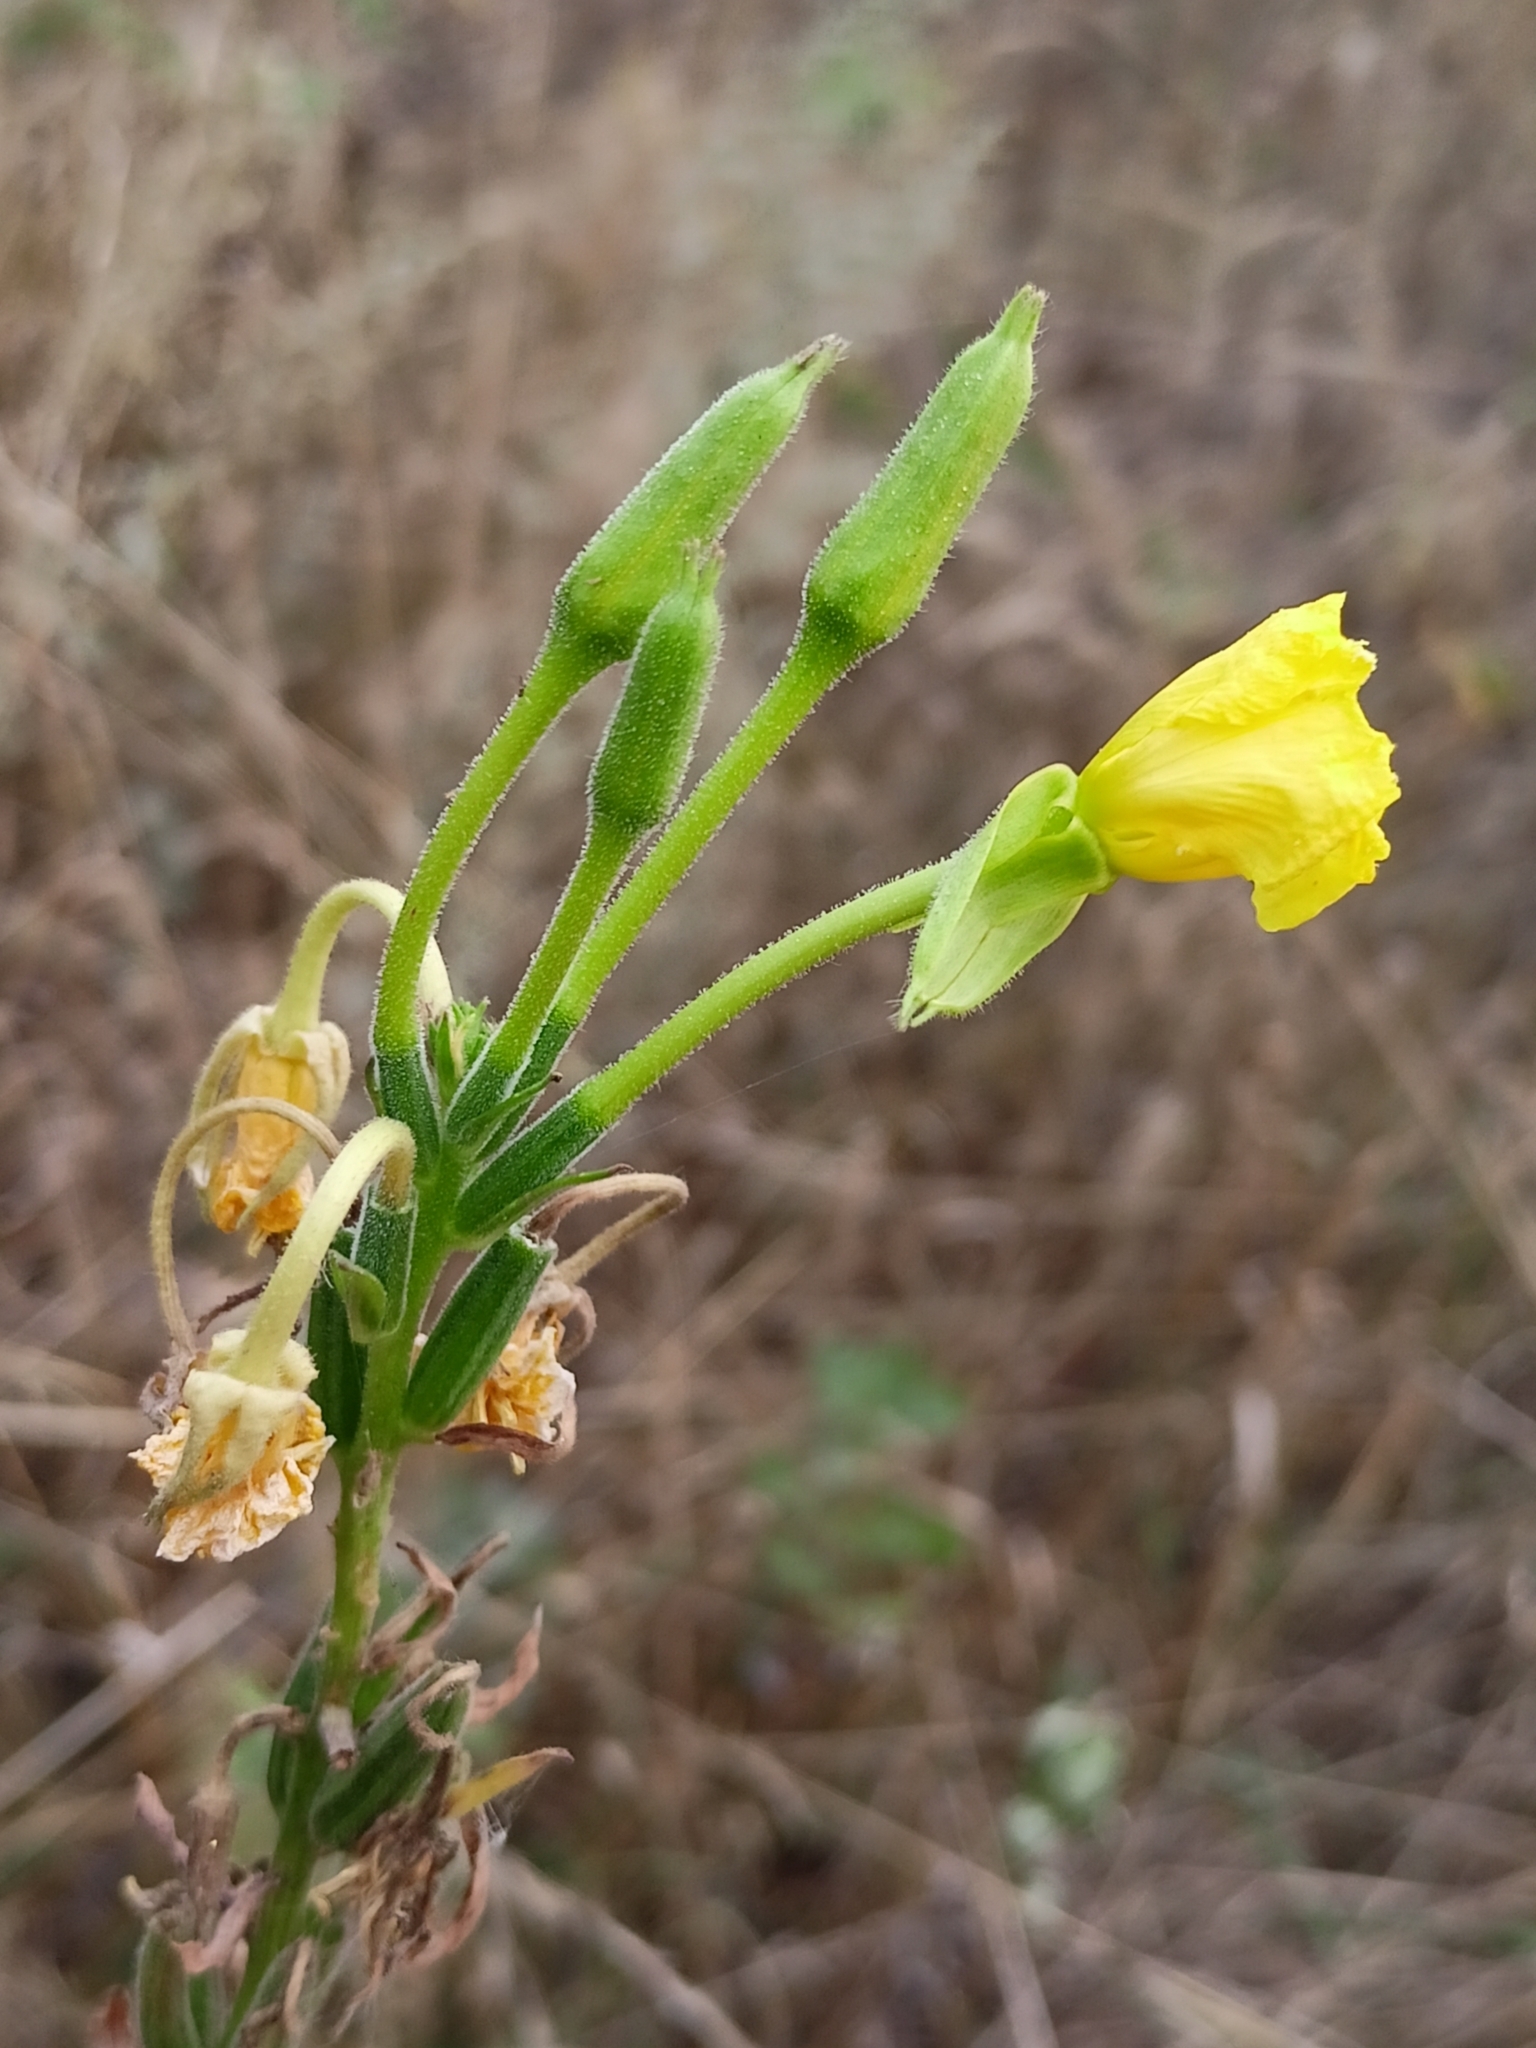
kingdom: Plantae
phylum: Tracheophyta
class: Magnoliopsida
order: Myrtales
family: Onagraceae
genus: Oenothera
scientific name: Oenothera biennis
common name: Common evening-primrose
